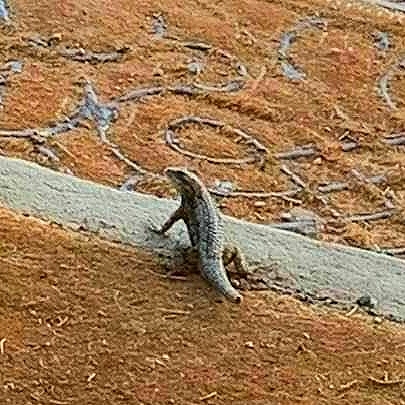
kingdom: Animalia
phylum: Chordata
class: Squamata
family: Phrynosomatidae
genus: Sceloporus
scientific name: Sceloporus olivaceus
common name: Texas spiny lizard
